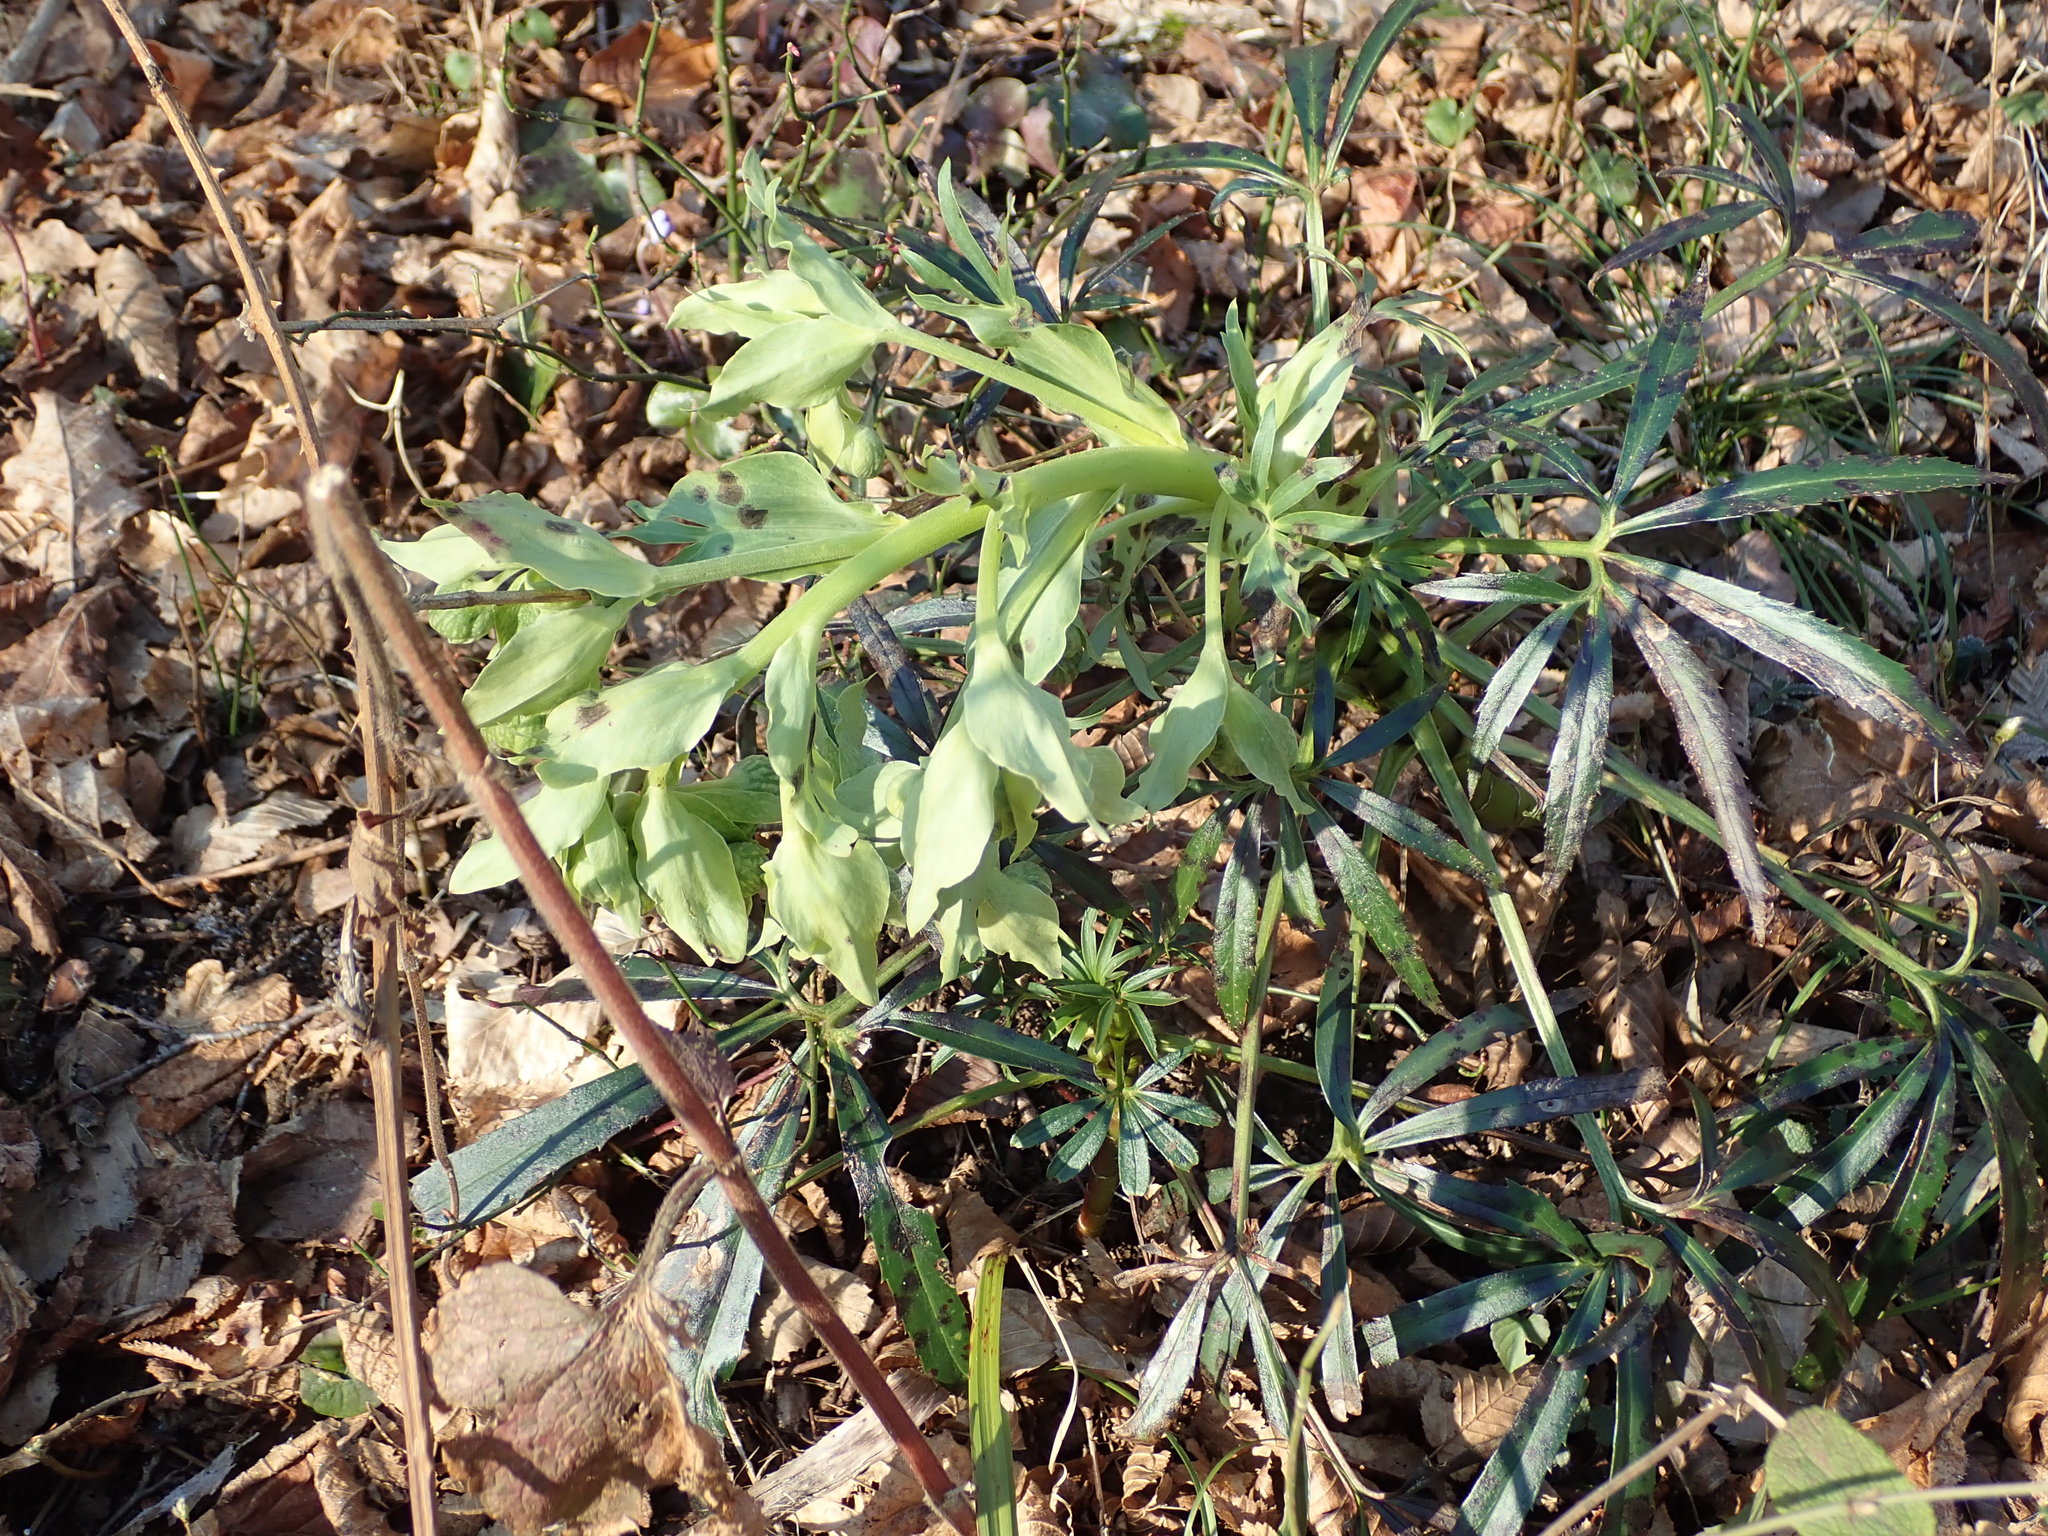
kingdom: Plantae
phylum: Tracheophyta
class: Magnoliopsida
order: Ranunculales
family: Ranunculaceae
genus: Helleborus
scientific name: Helleborus foetidus
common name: Stinking hellebore
